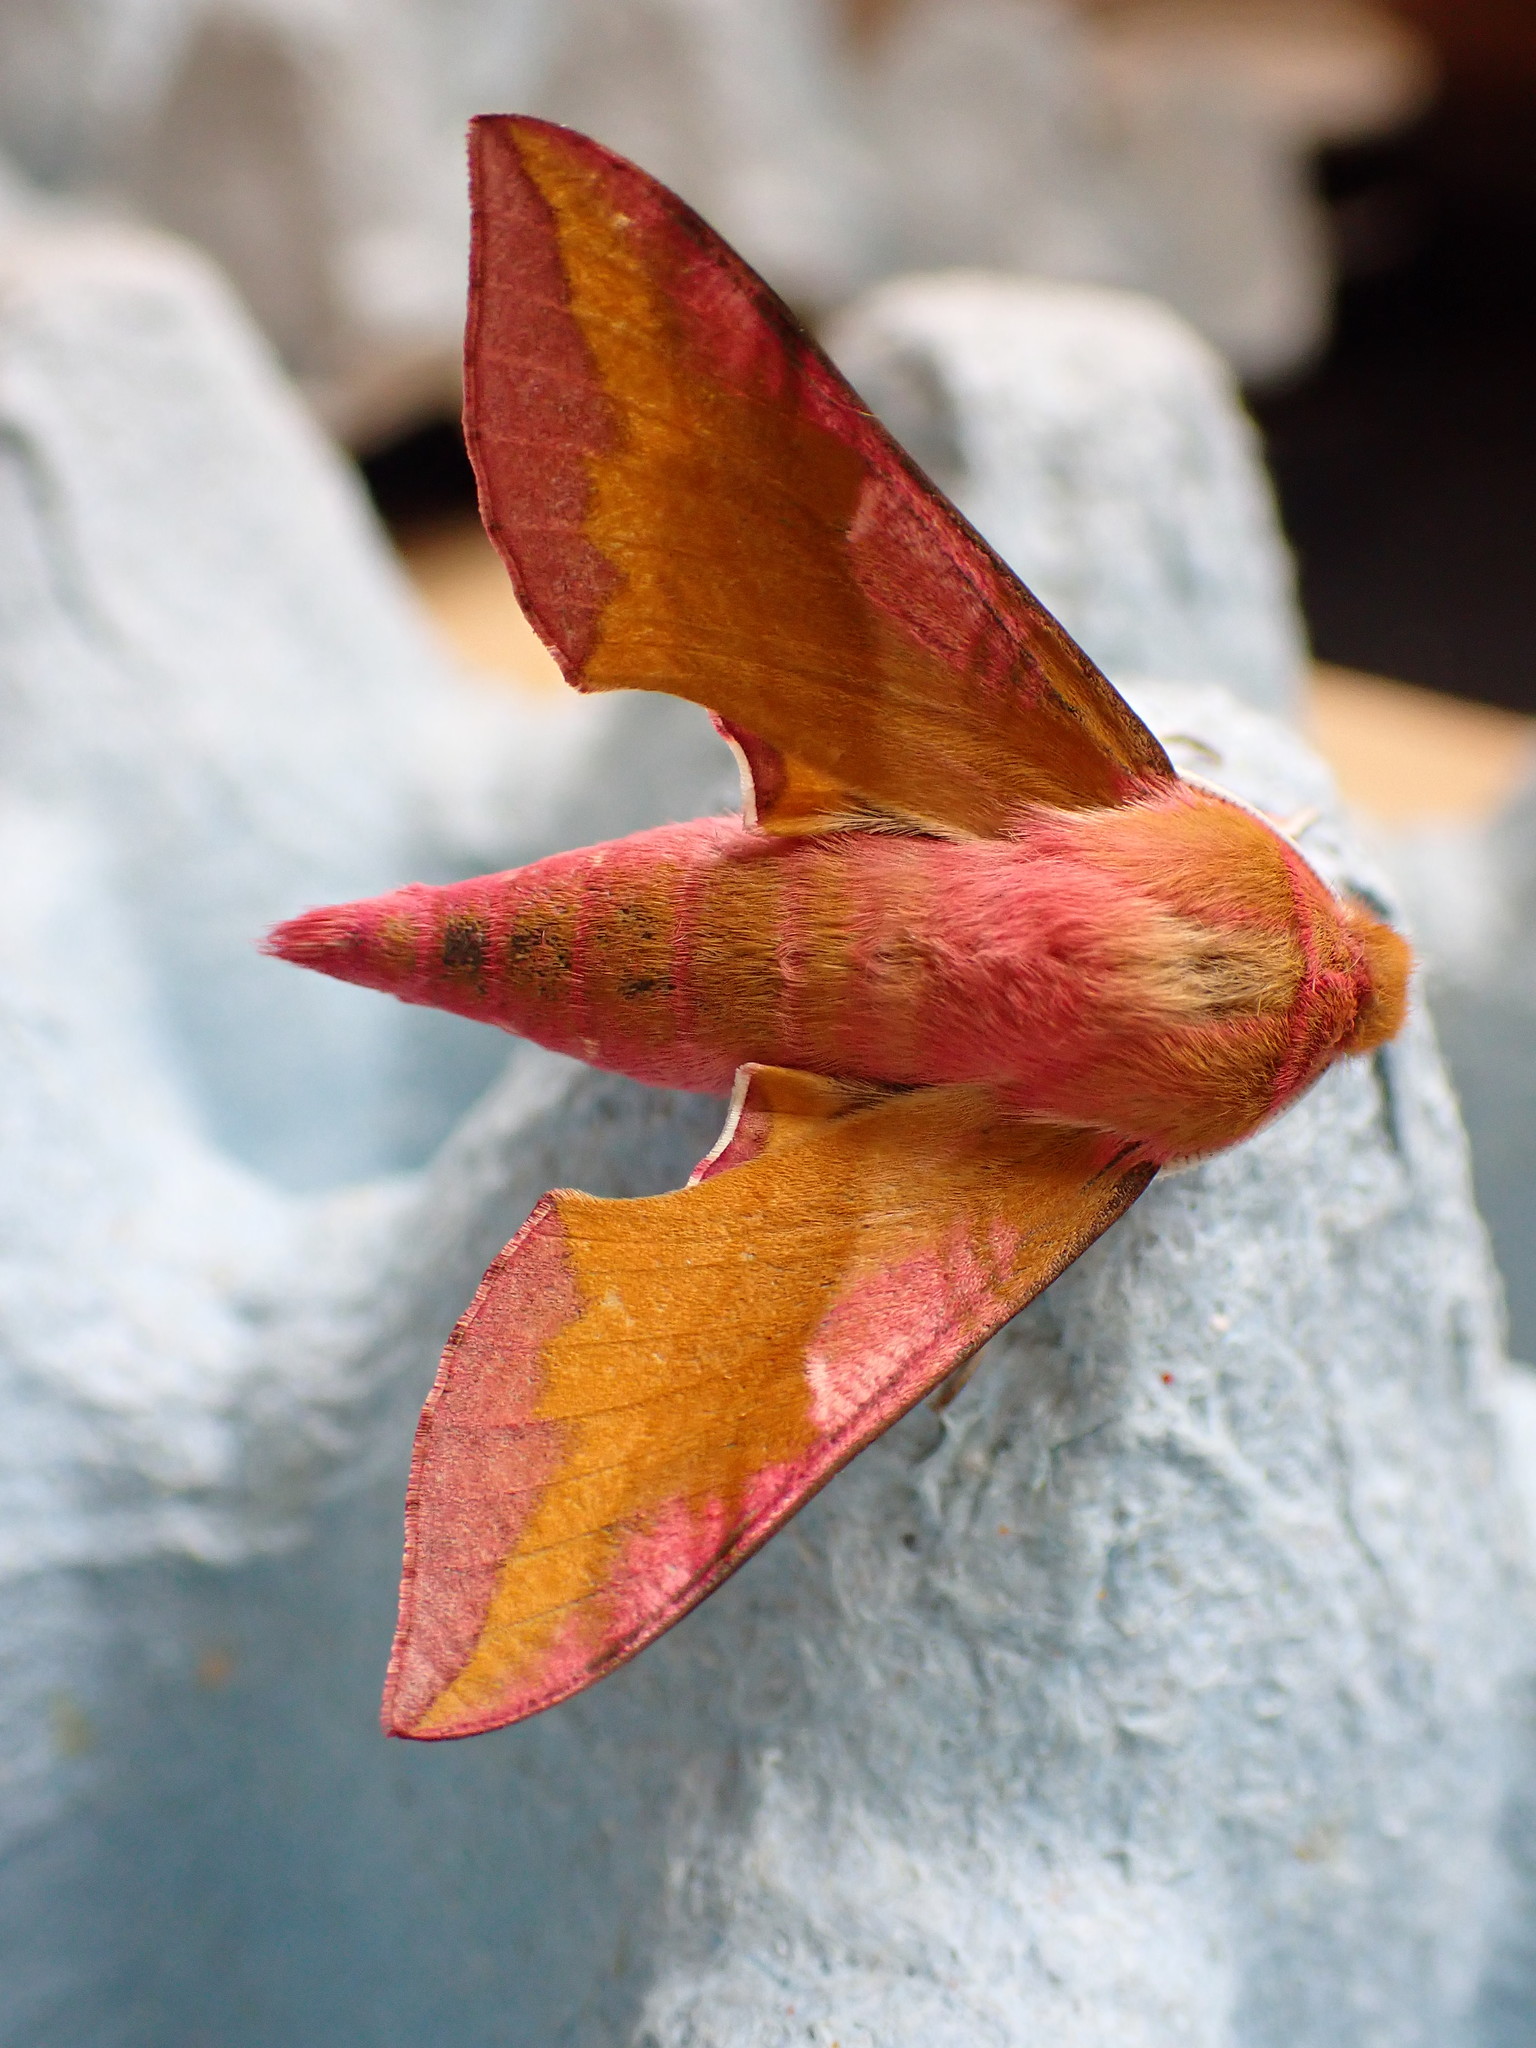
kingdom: Animalia
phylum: Arthropoda
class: Insecta
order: Lepidoptera
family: Sphingidae
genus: Deilephila
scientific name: Deilephila porcellus
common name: Small elephant hawk-moth
